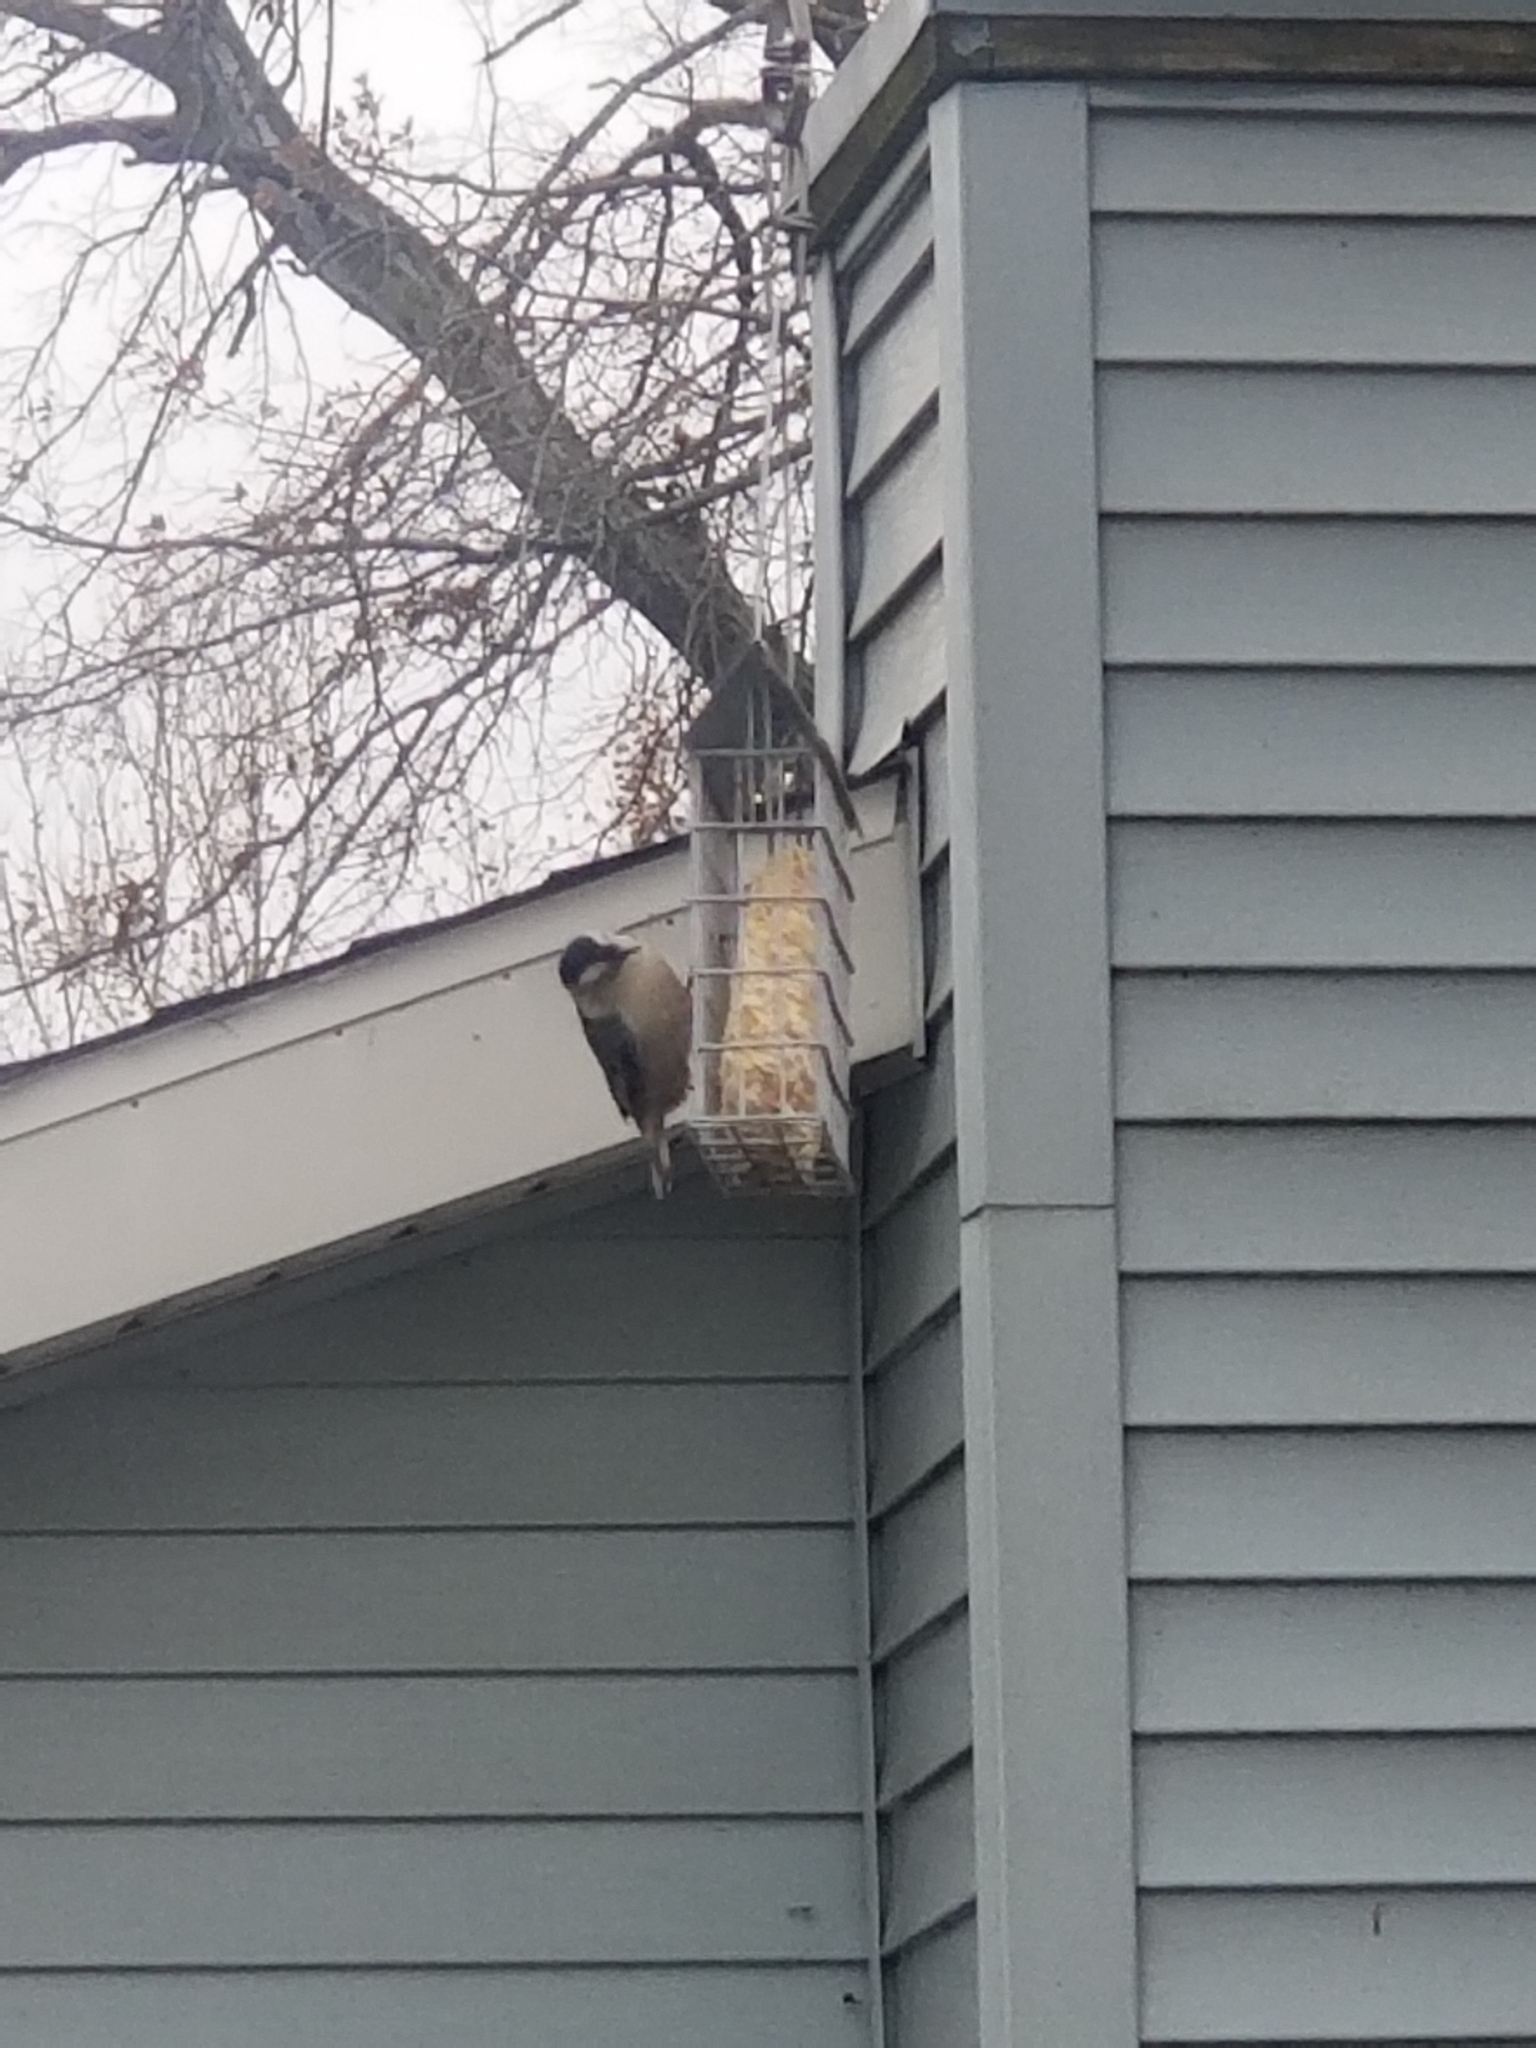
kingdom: Animalia
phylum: Chordata
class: Aves
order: Passeriformes
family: Sittidae
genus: Sitta
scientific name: Sitta carolinensis
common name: White-breasted nuthatch
